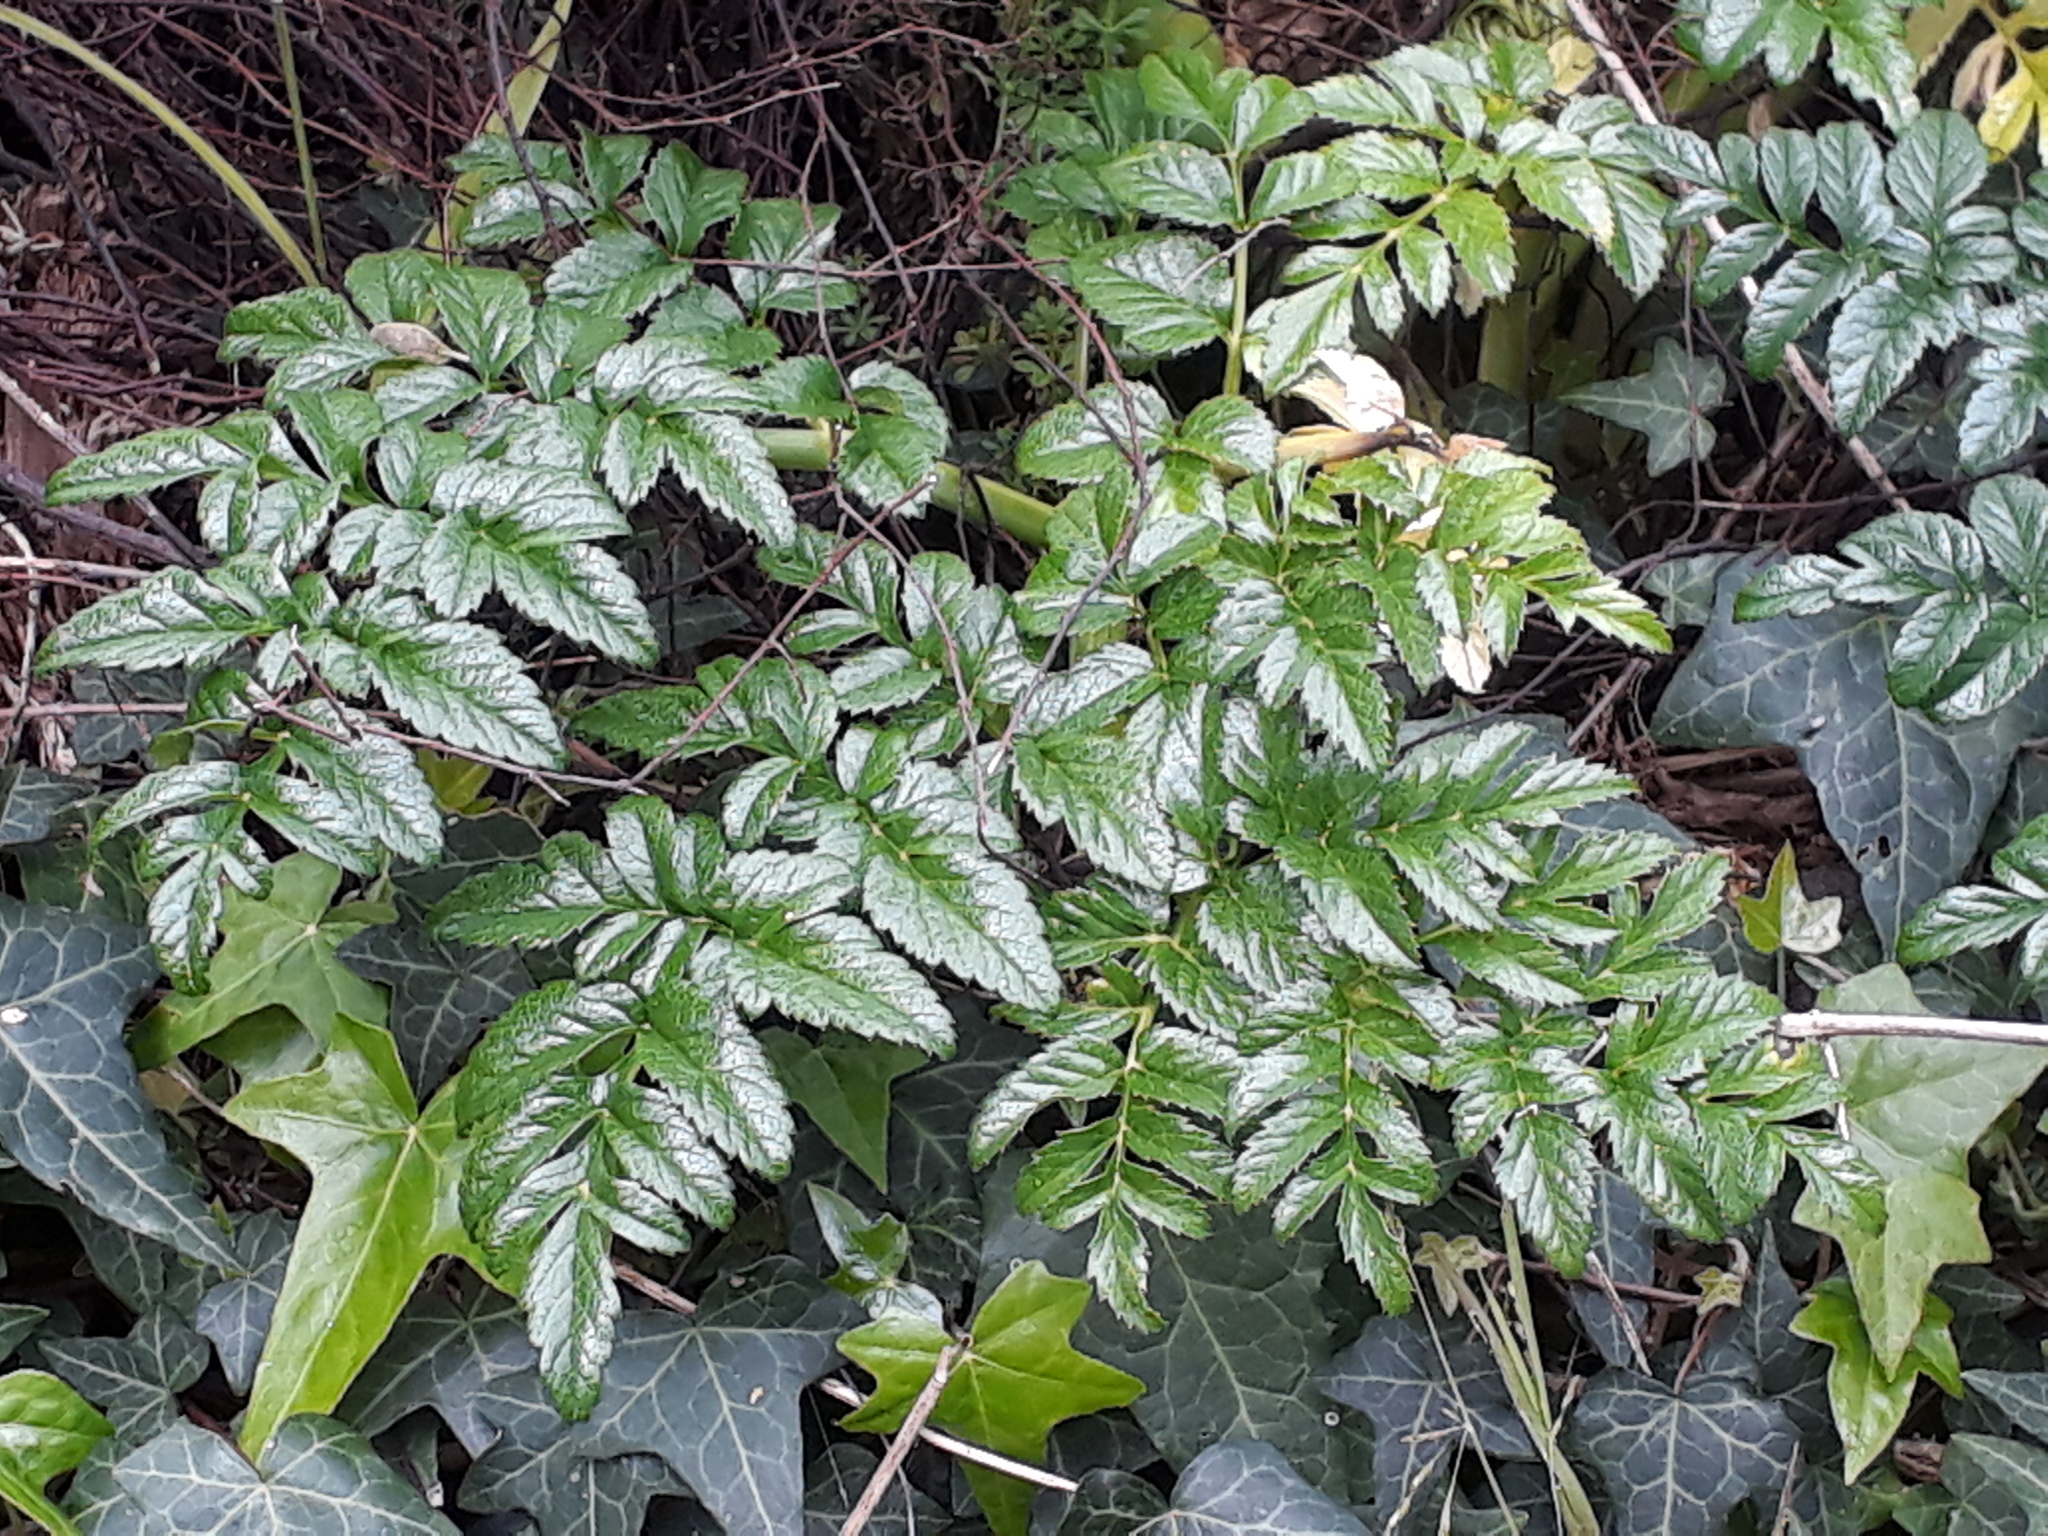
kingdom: Plantae
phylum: Tracheophyta
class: Magnoliopsida
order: Apiales
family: Apiaceae
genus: Angelica
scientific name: Angelica pachycarpa
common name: Portuguese angelica
